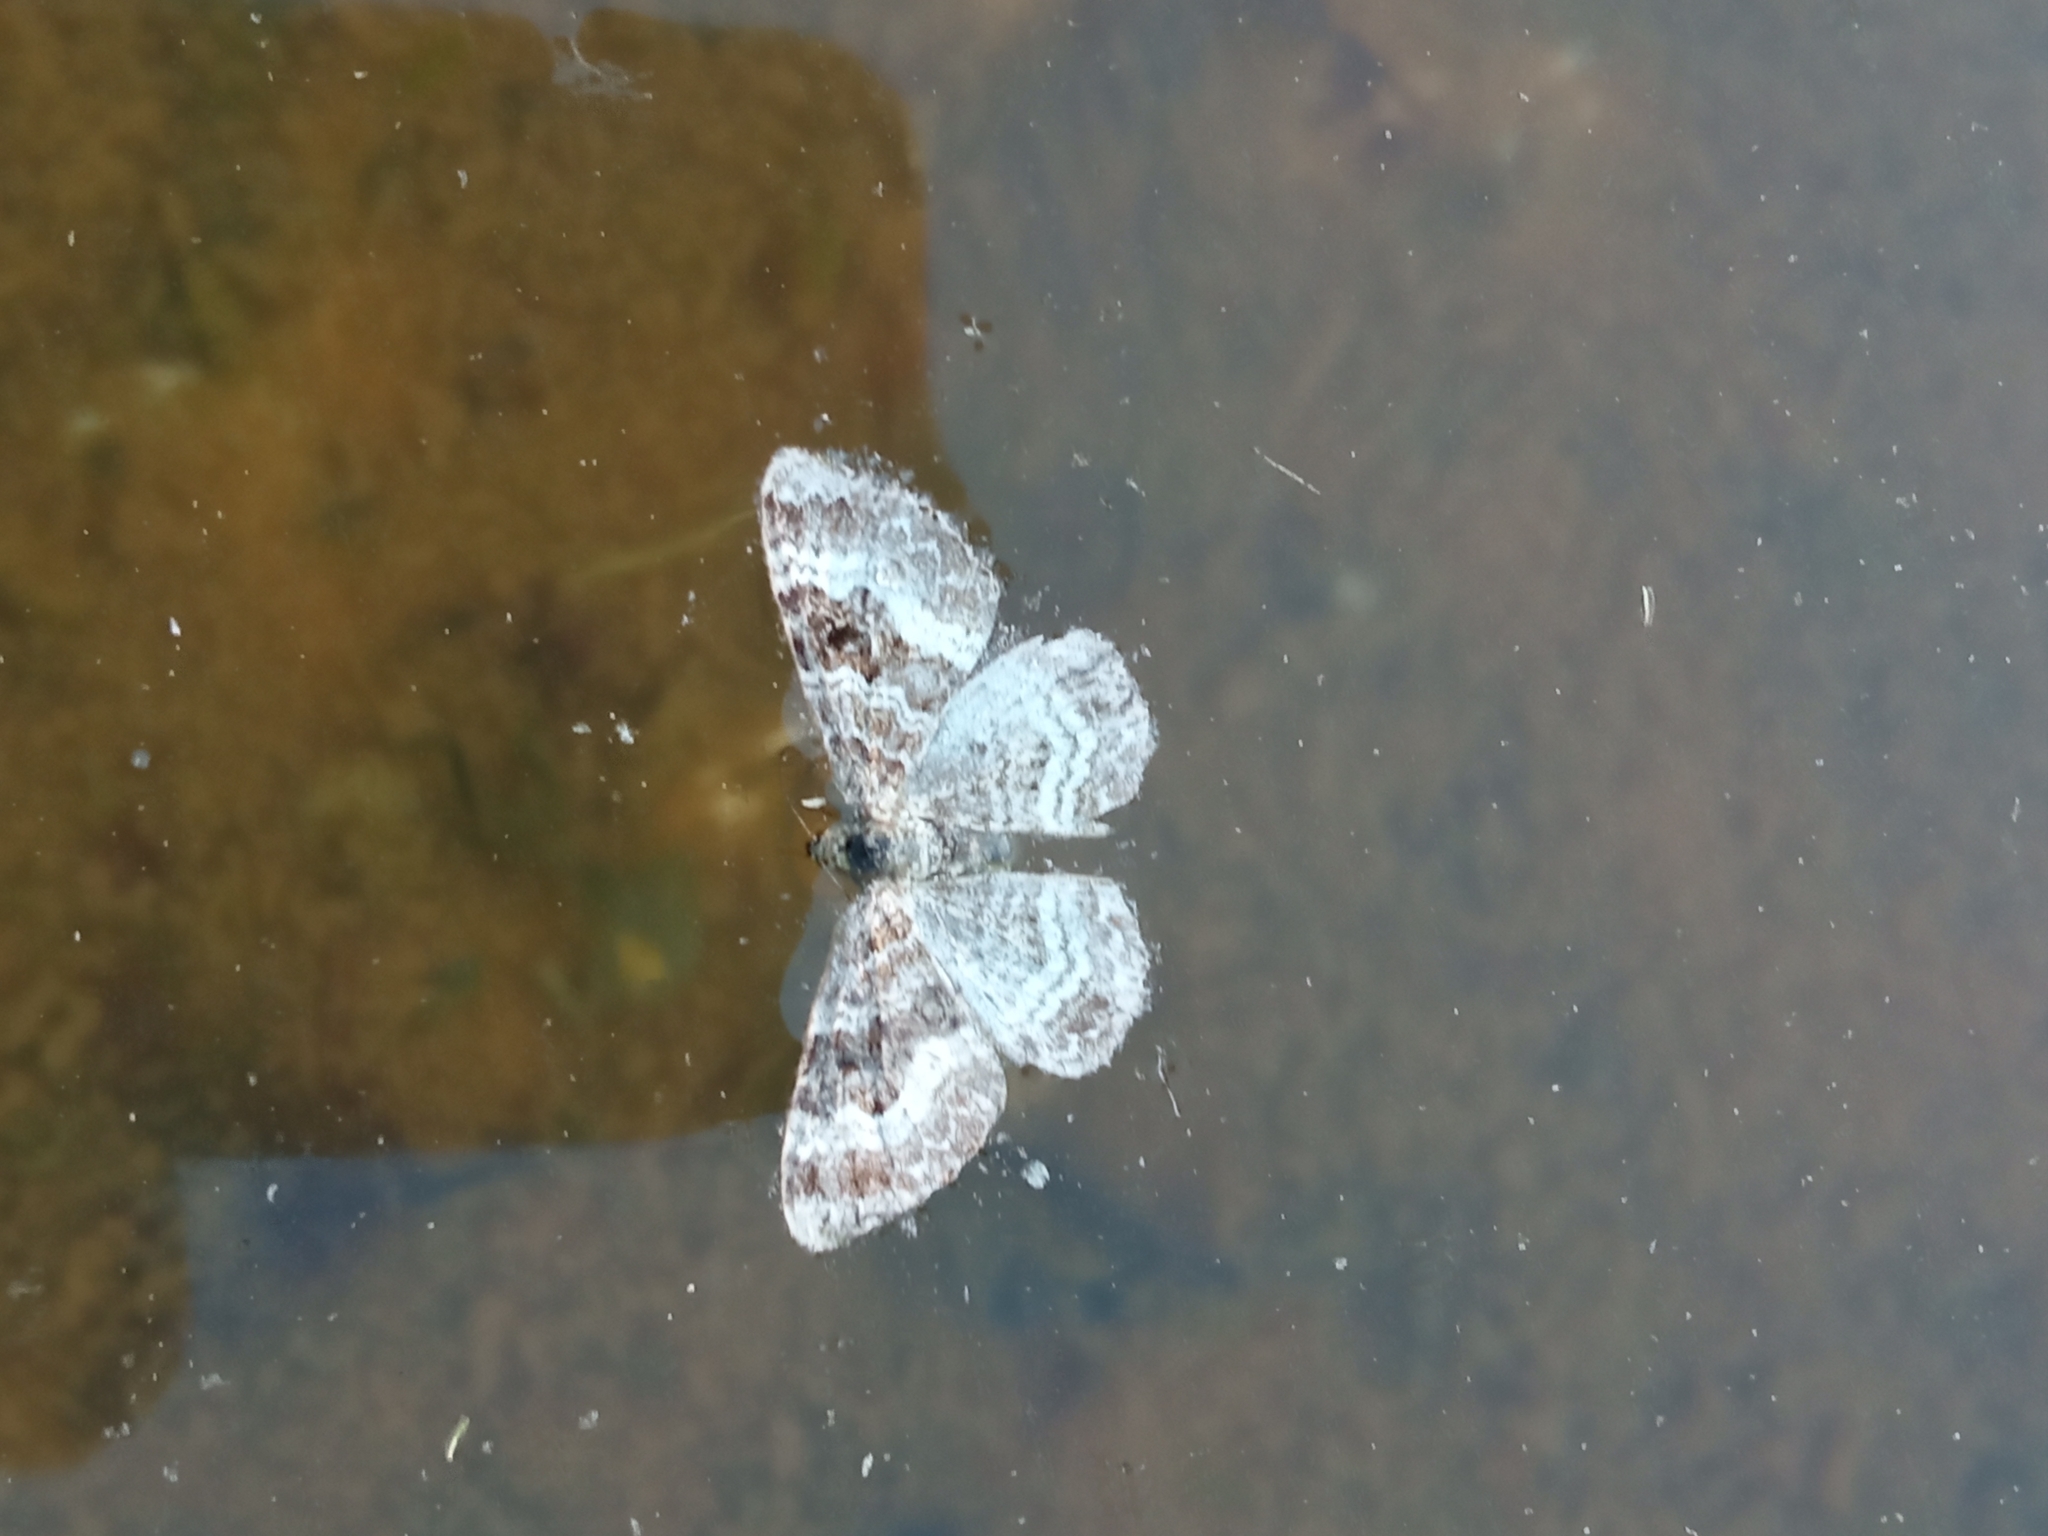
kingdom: Animalia
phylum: Arthropoda
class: Insecta
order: Lepidoptera
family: Geometridae
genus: Epirrhoe
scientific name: Epirrhoe alternata
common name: Common carpet
